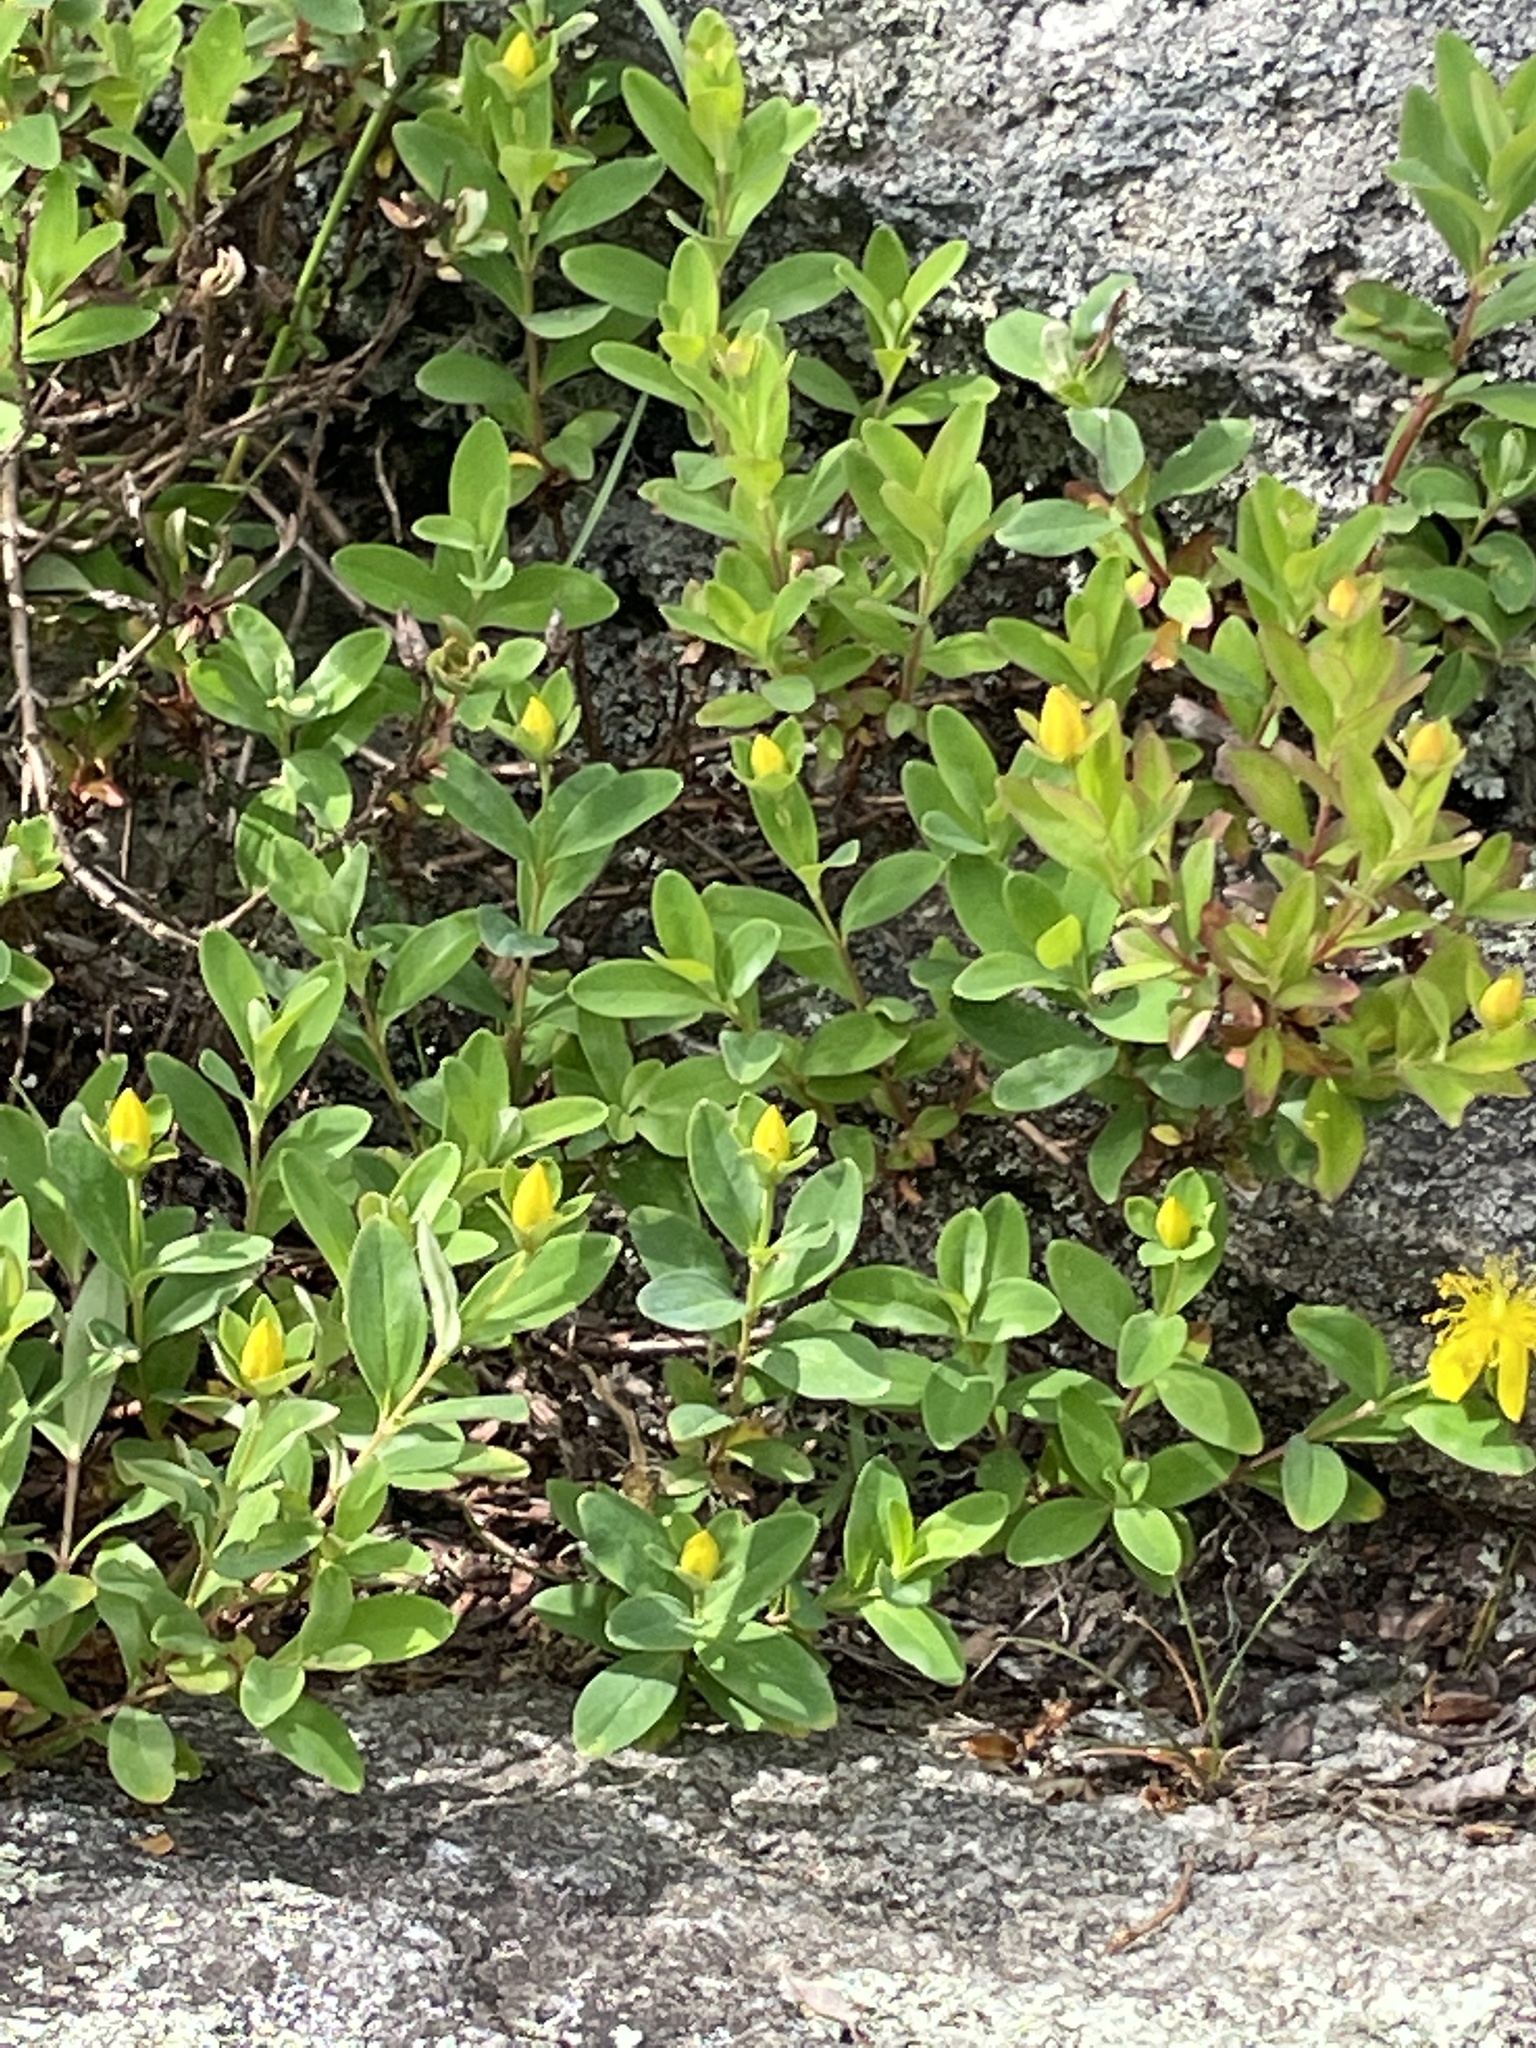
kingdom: Plantae
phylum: Tracheophyta
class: Magnoliopsida
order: Malpighiales
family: Hypericaceae
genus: Hypericum
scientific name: Hypericum buckleyi
